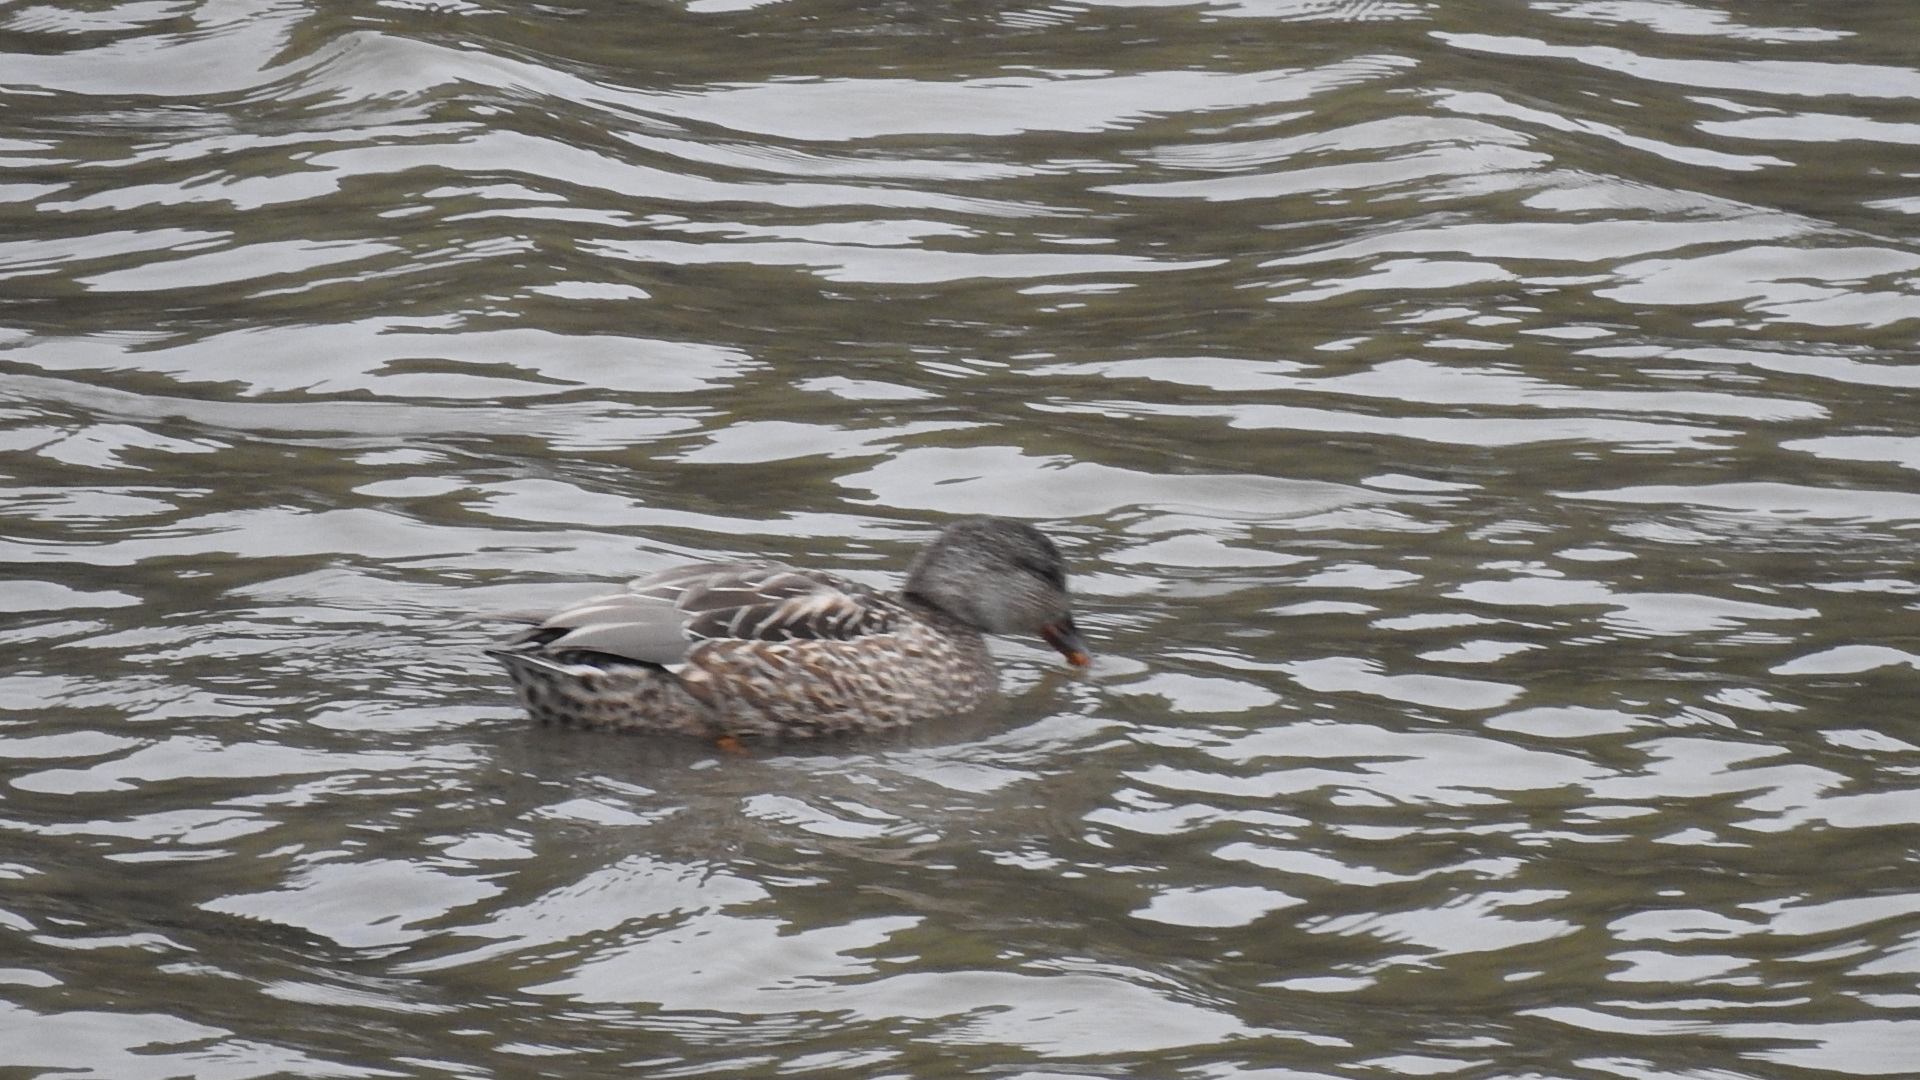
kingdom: Animalia
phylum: Chordata
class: Aves
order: Anseriformes
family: Anatidae
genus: Mareca
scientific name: Mareca strepera
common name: Gadwall
